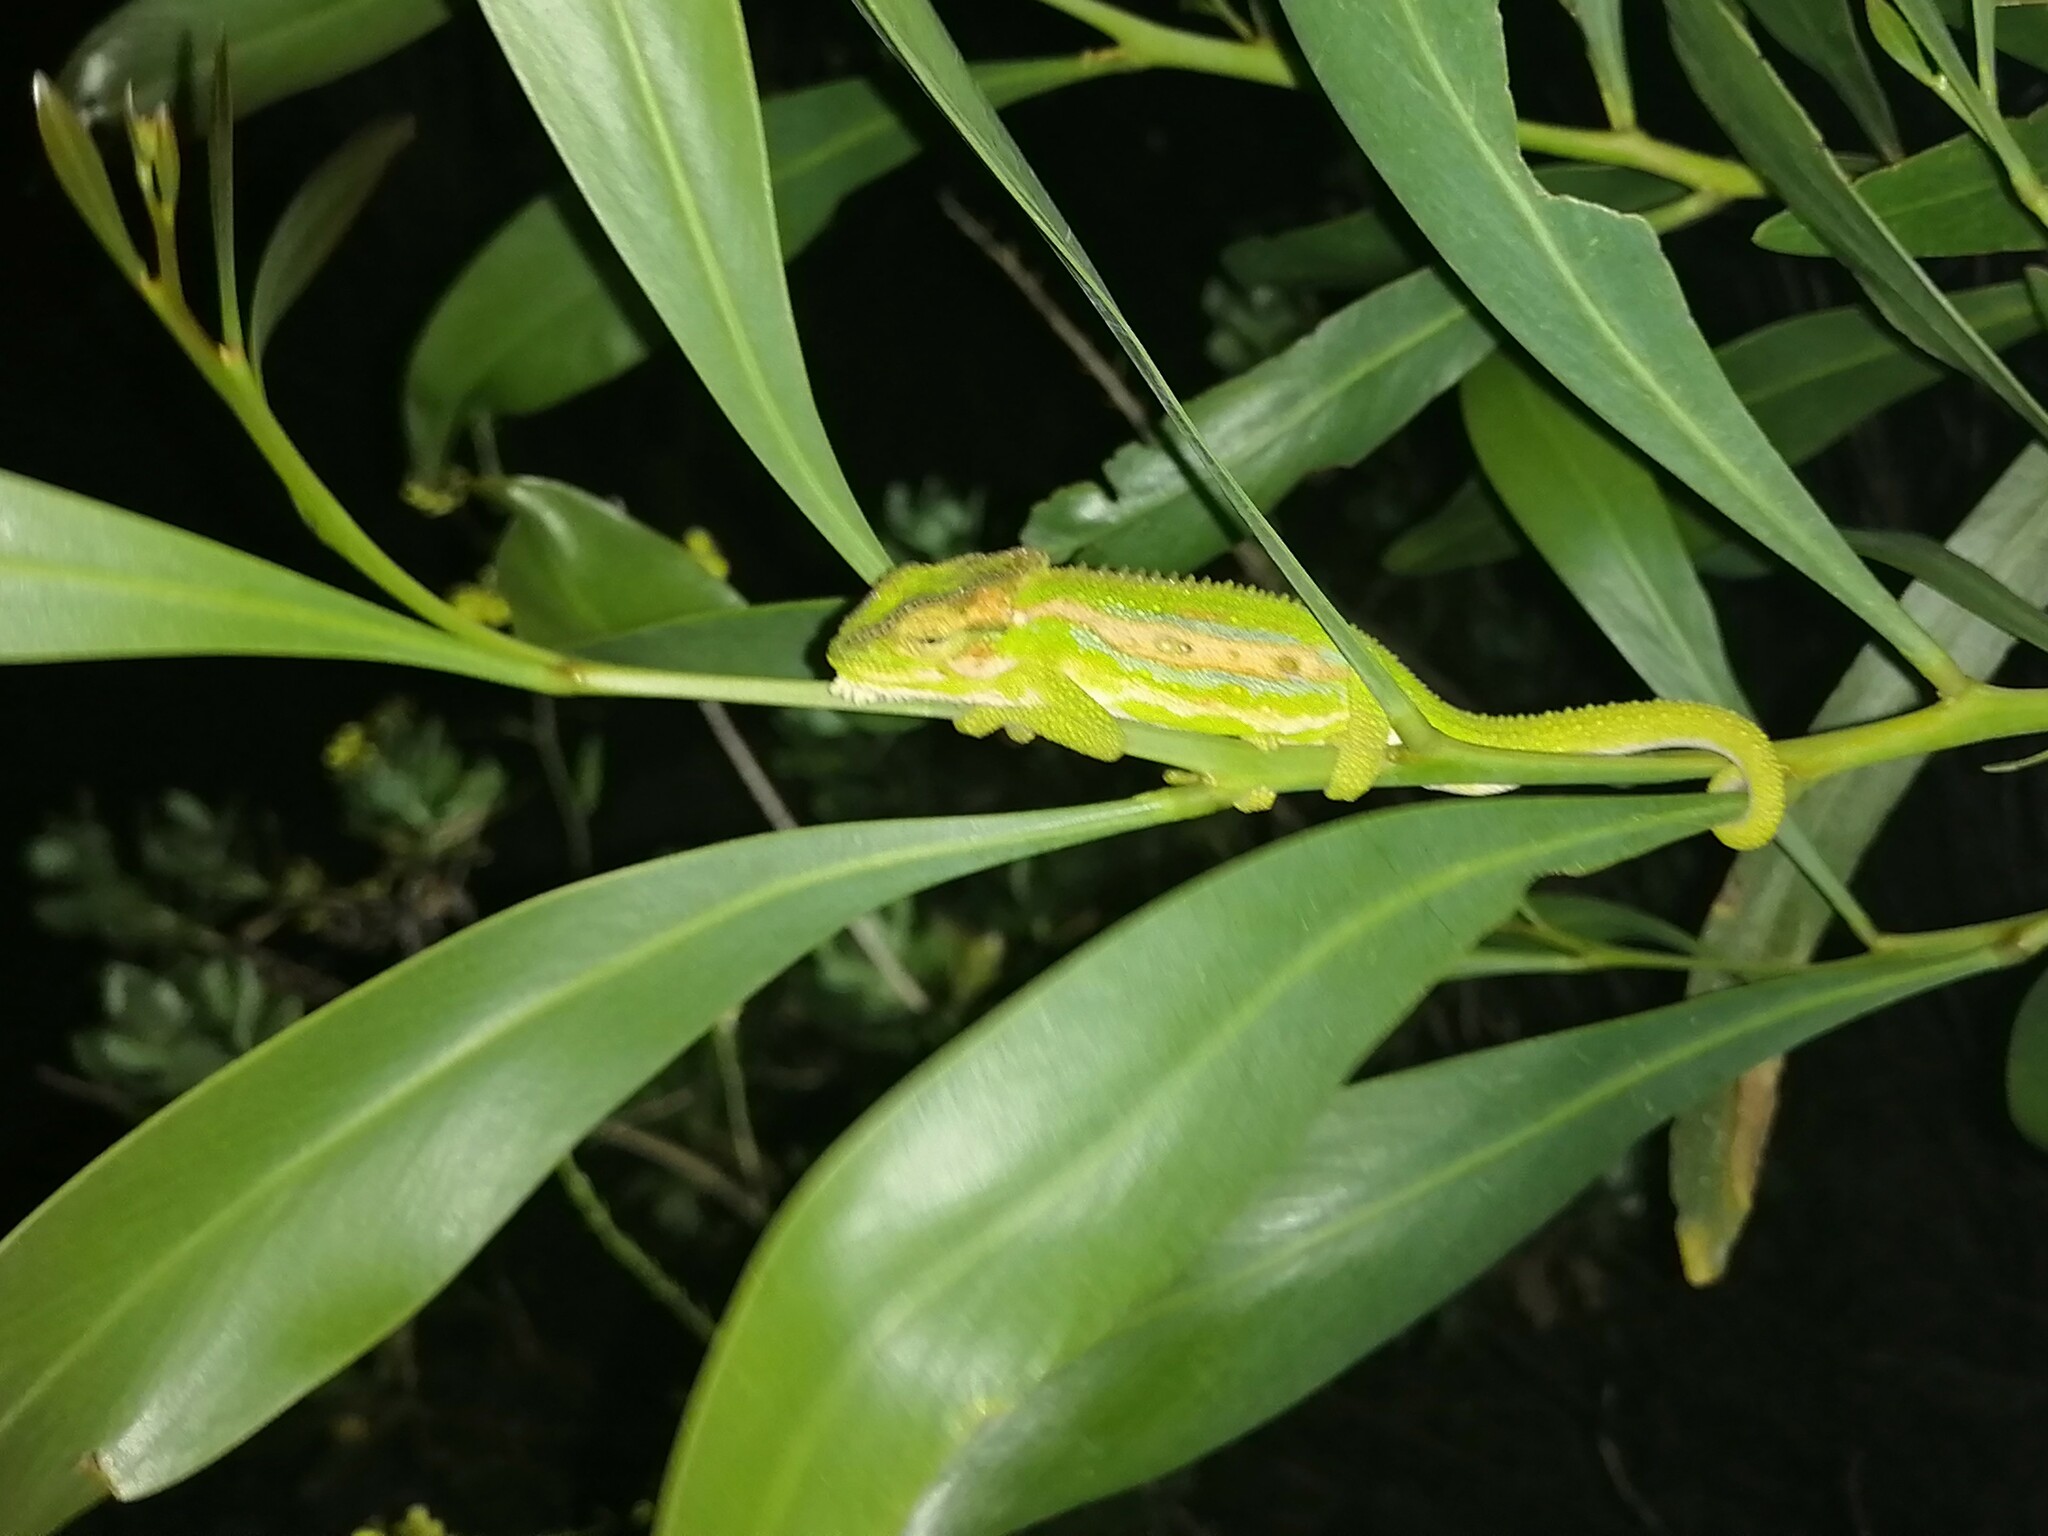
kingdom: Animalia
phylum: Chordata
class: Squamata
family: Chamaeleonidae
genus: Bradypodion
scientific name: Bradypodion pumilum
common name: Cape dwarf chameleon
